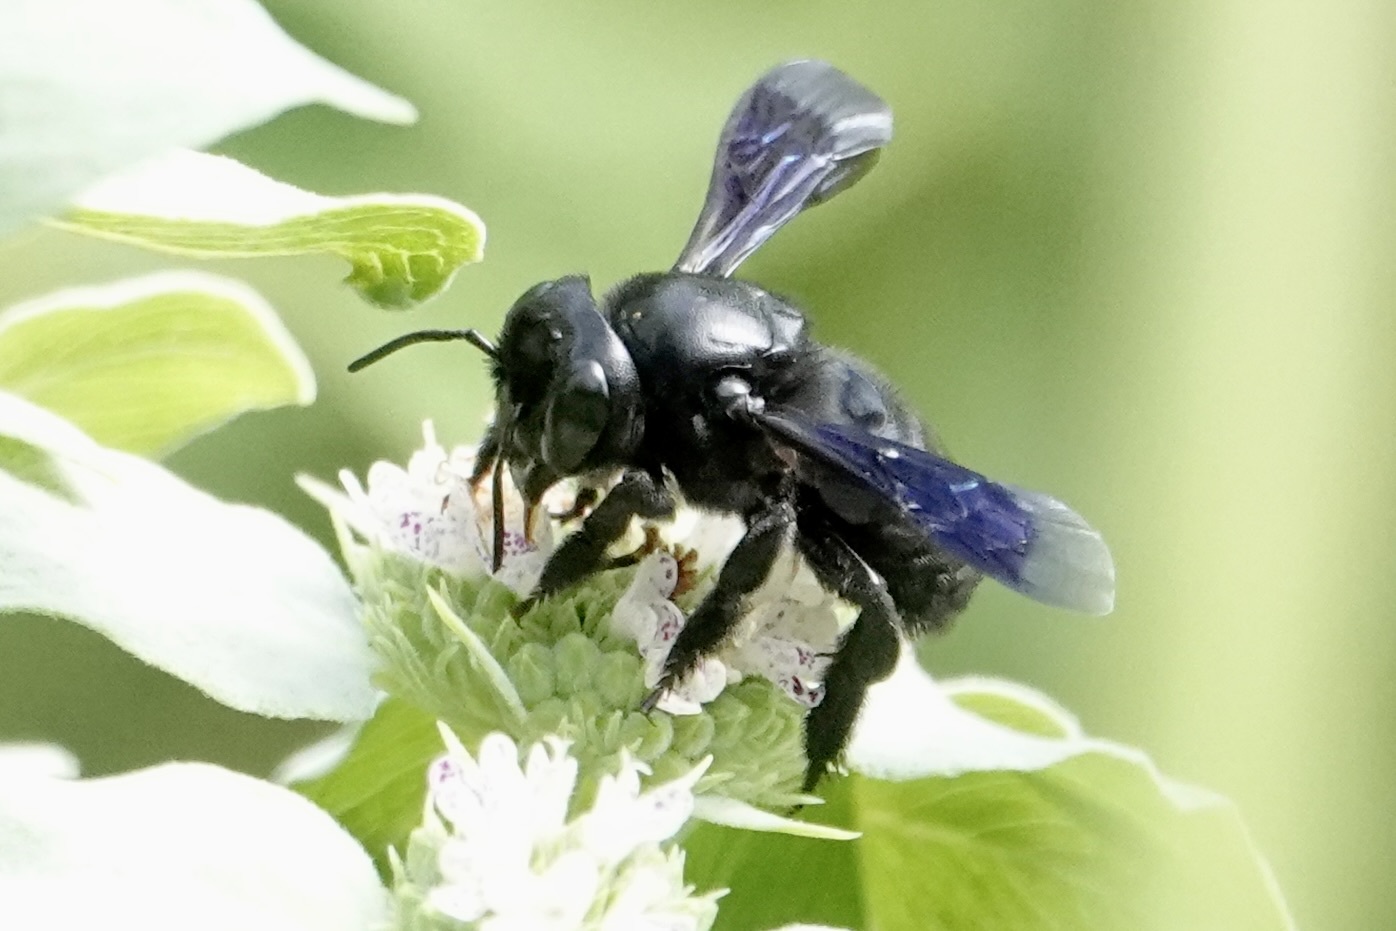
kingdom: Animalia
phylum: Arthropoda
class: Insecta
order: Hymenoptera
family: Megachilidae
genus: Megachile
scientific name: Megachile xylocopoides
